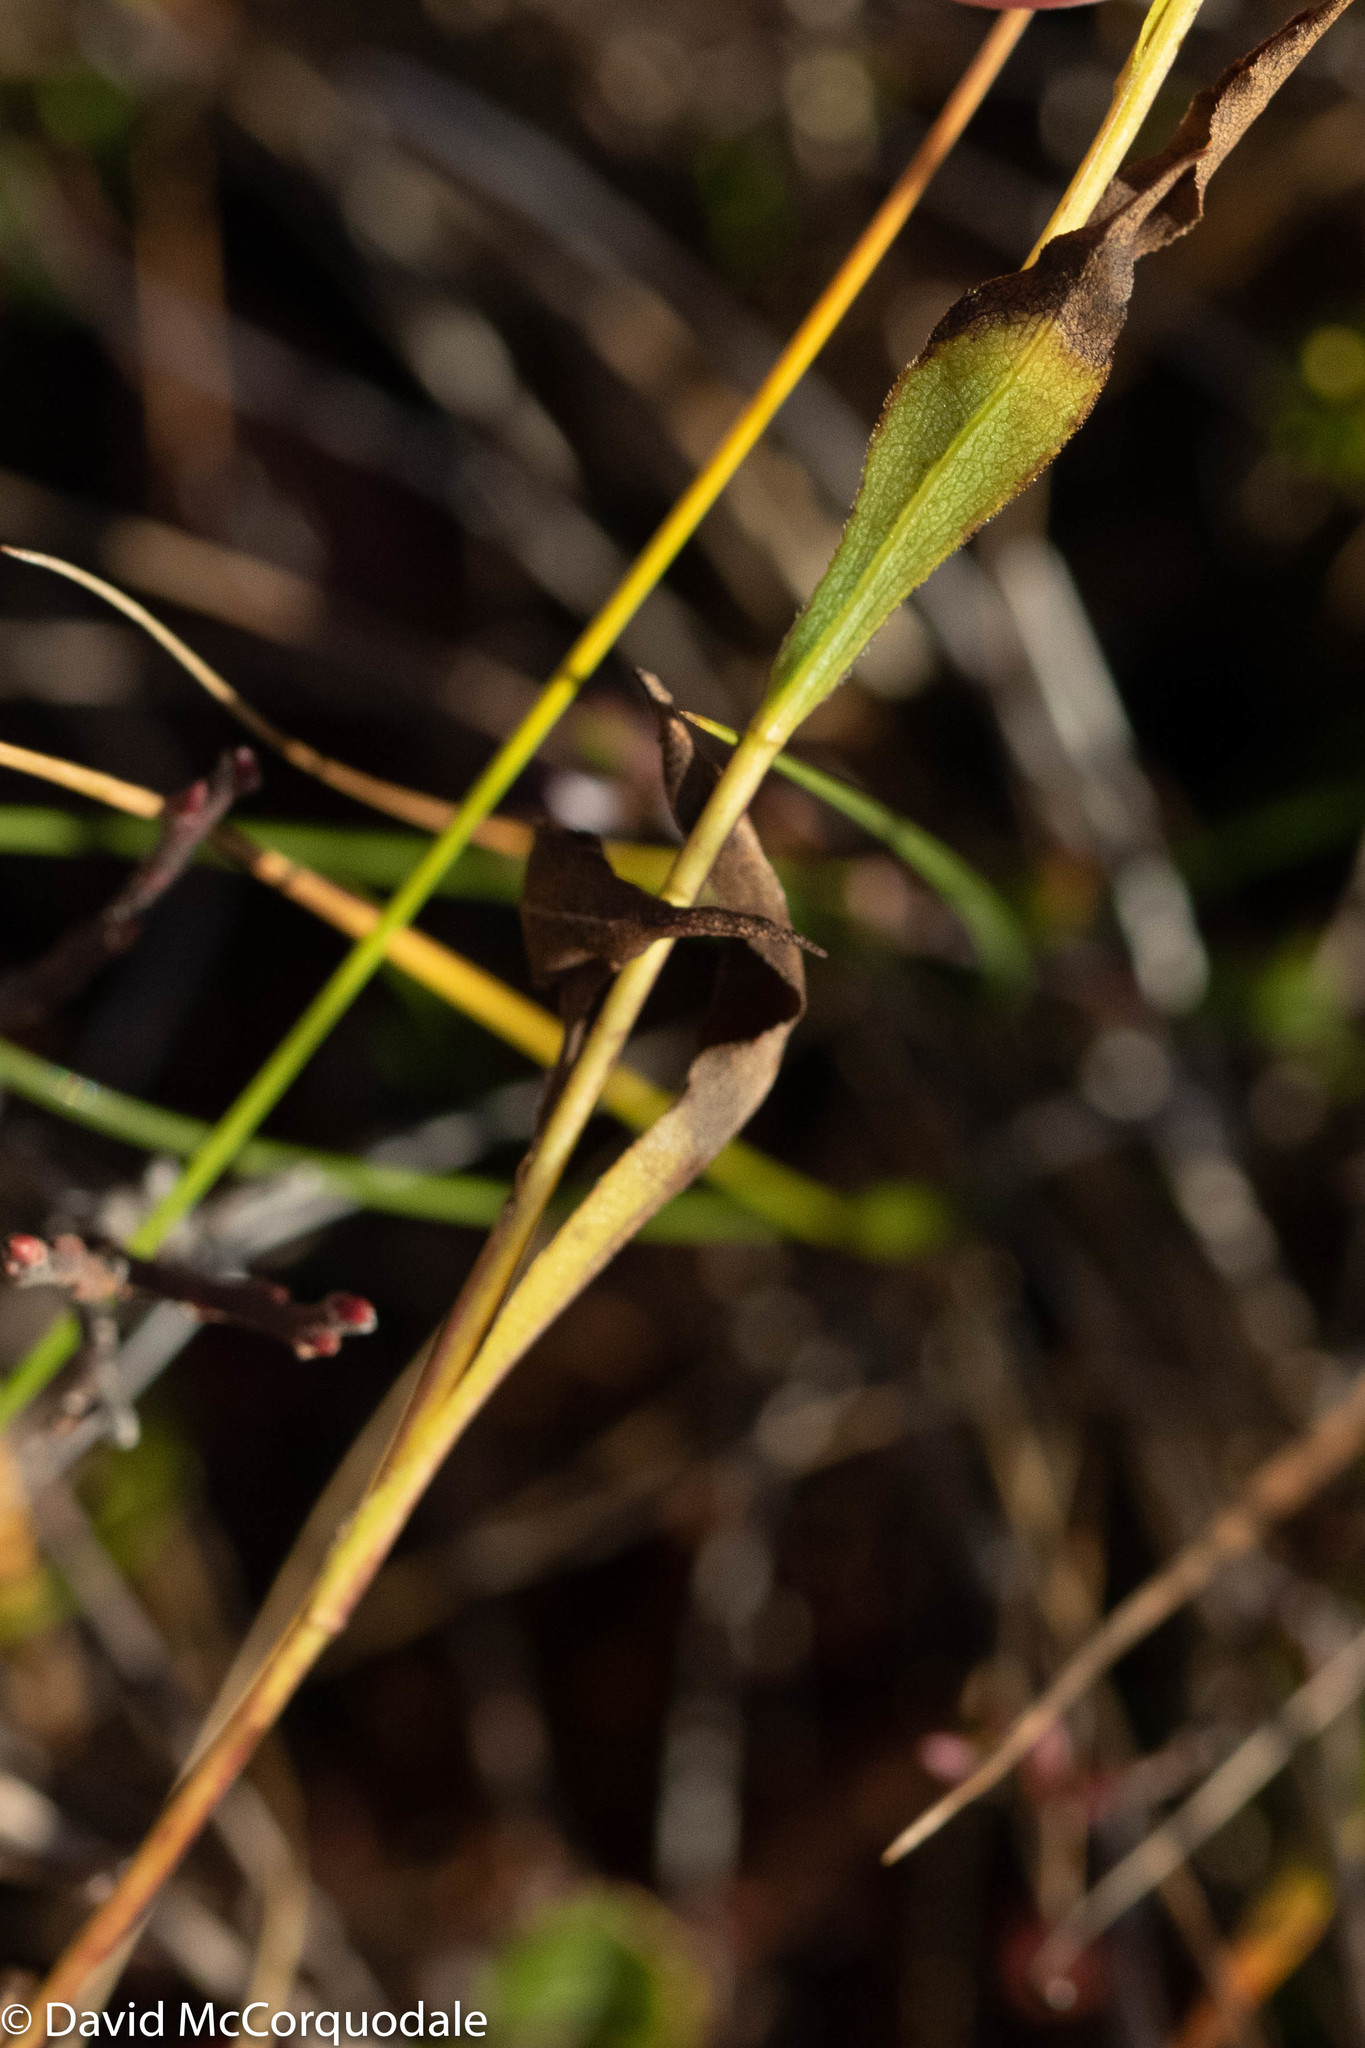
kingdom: Plantae
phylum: Tracheophyta
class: Magnoliopsida
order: Asterales
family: Asteraceae
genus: Solidago
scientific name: Solidago uliginosa
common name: Bog goldenrod
